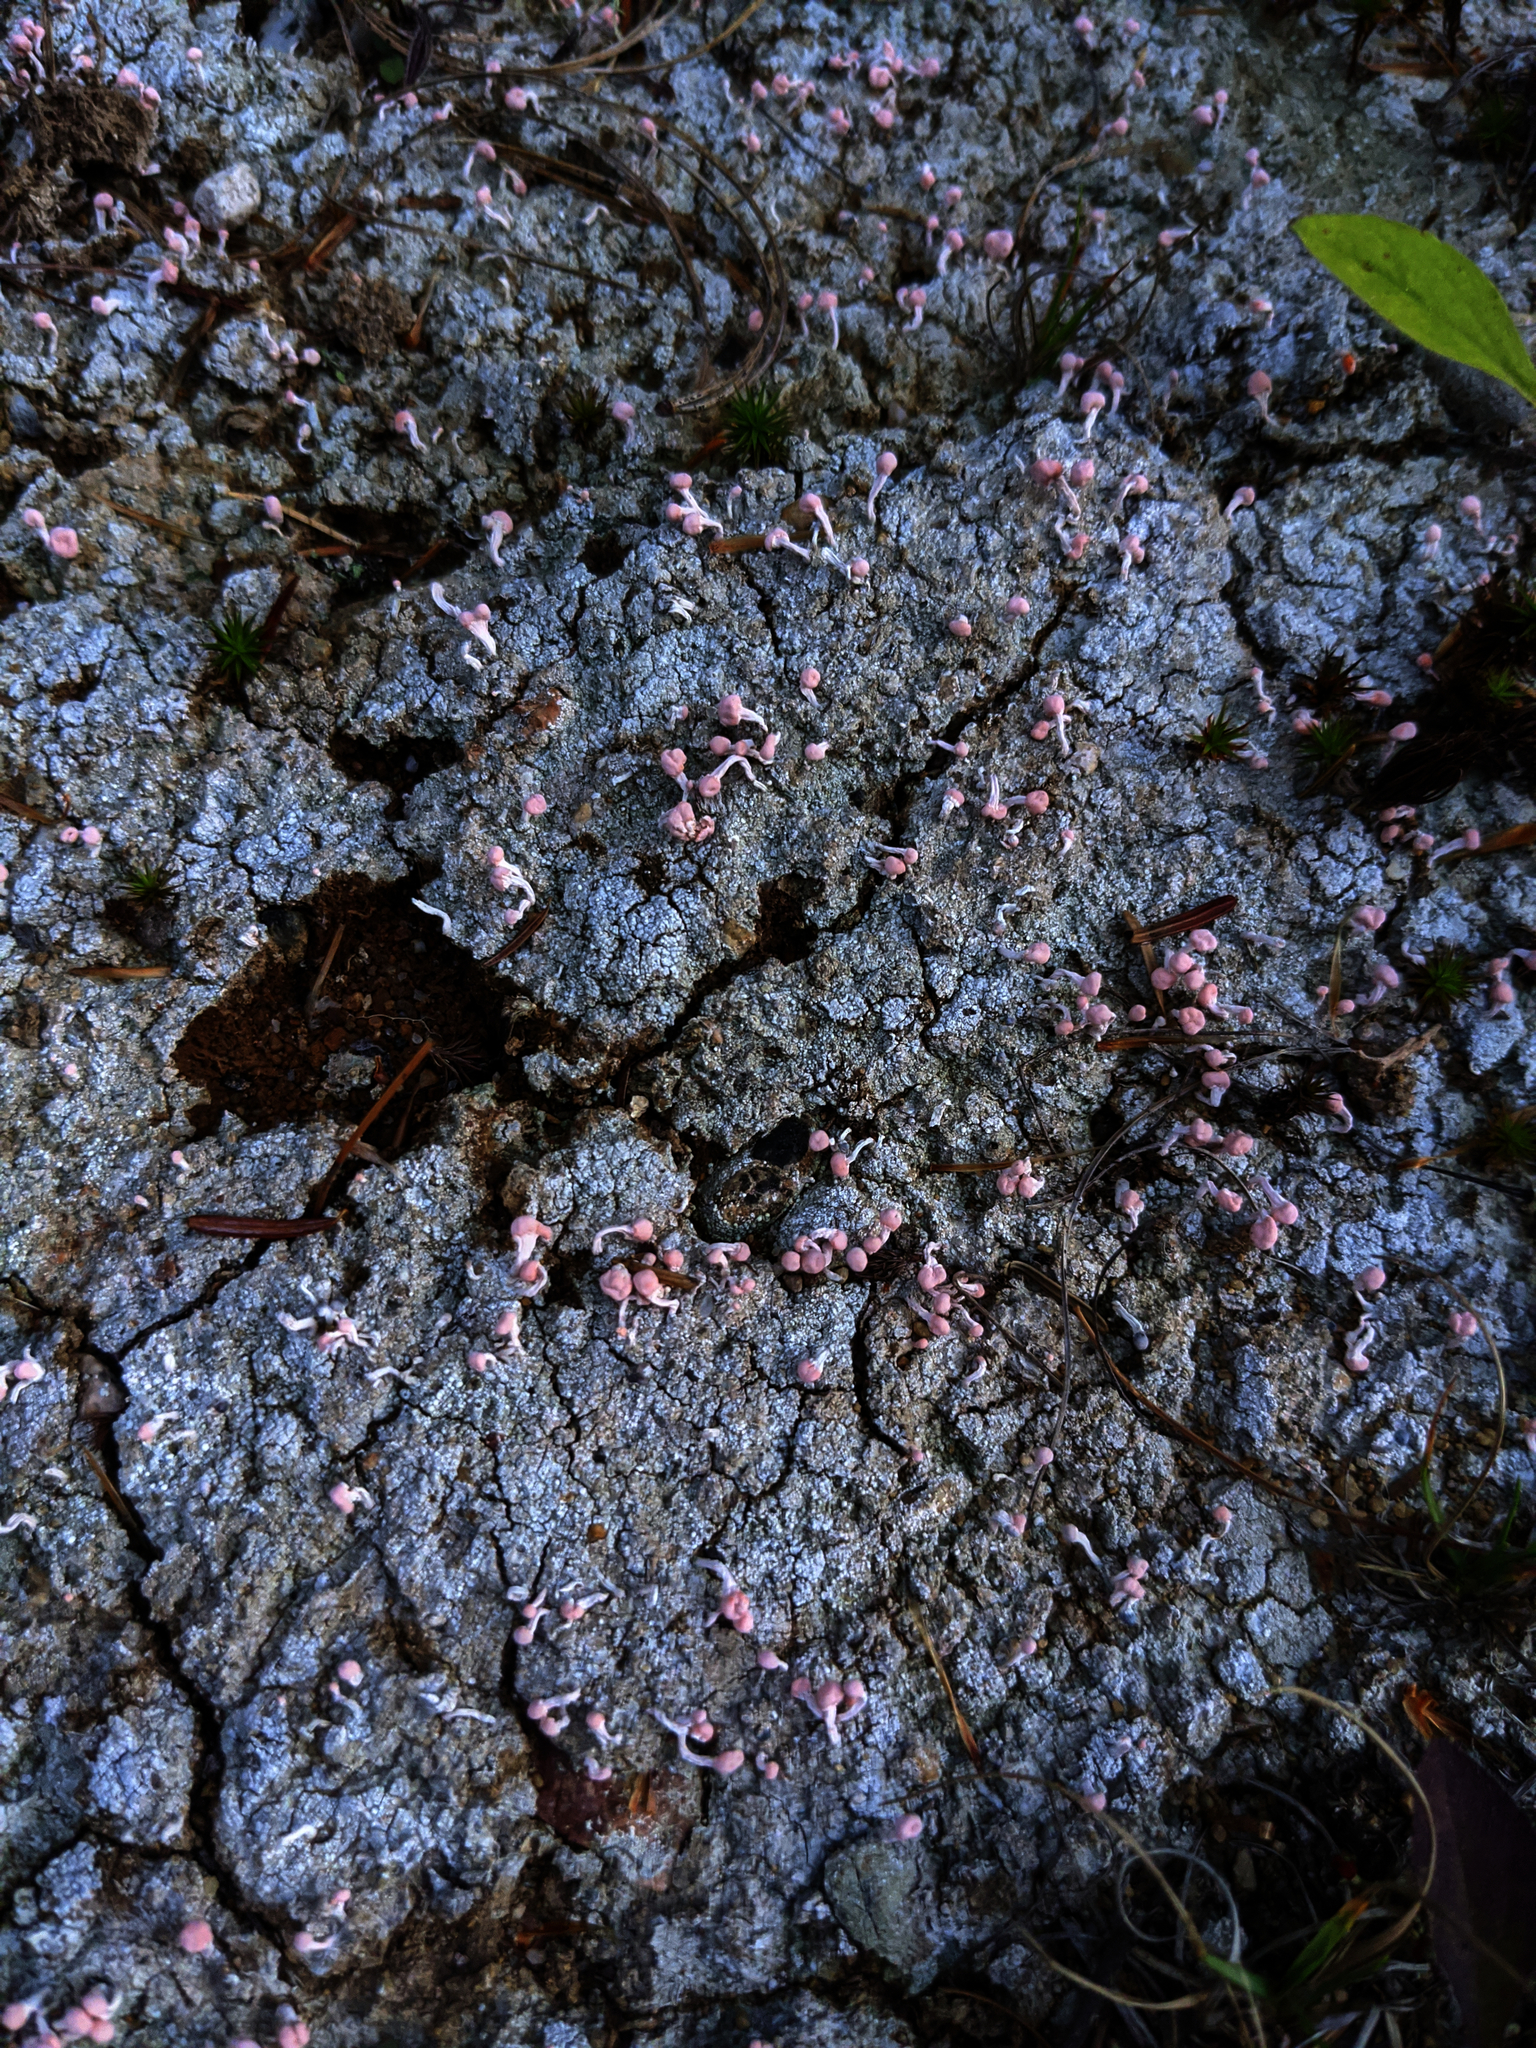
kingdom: Fungi
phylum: Ascomycota
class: Lecanoromycetes
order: Pertusariales
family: Icmadophilaceae
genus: Dibaeis
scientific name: Dibaeis baeomyces
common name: Pink earth lichen
